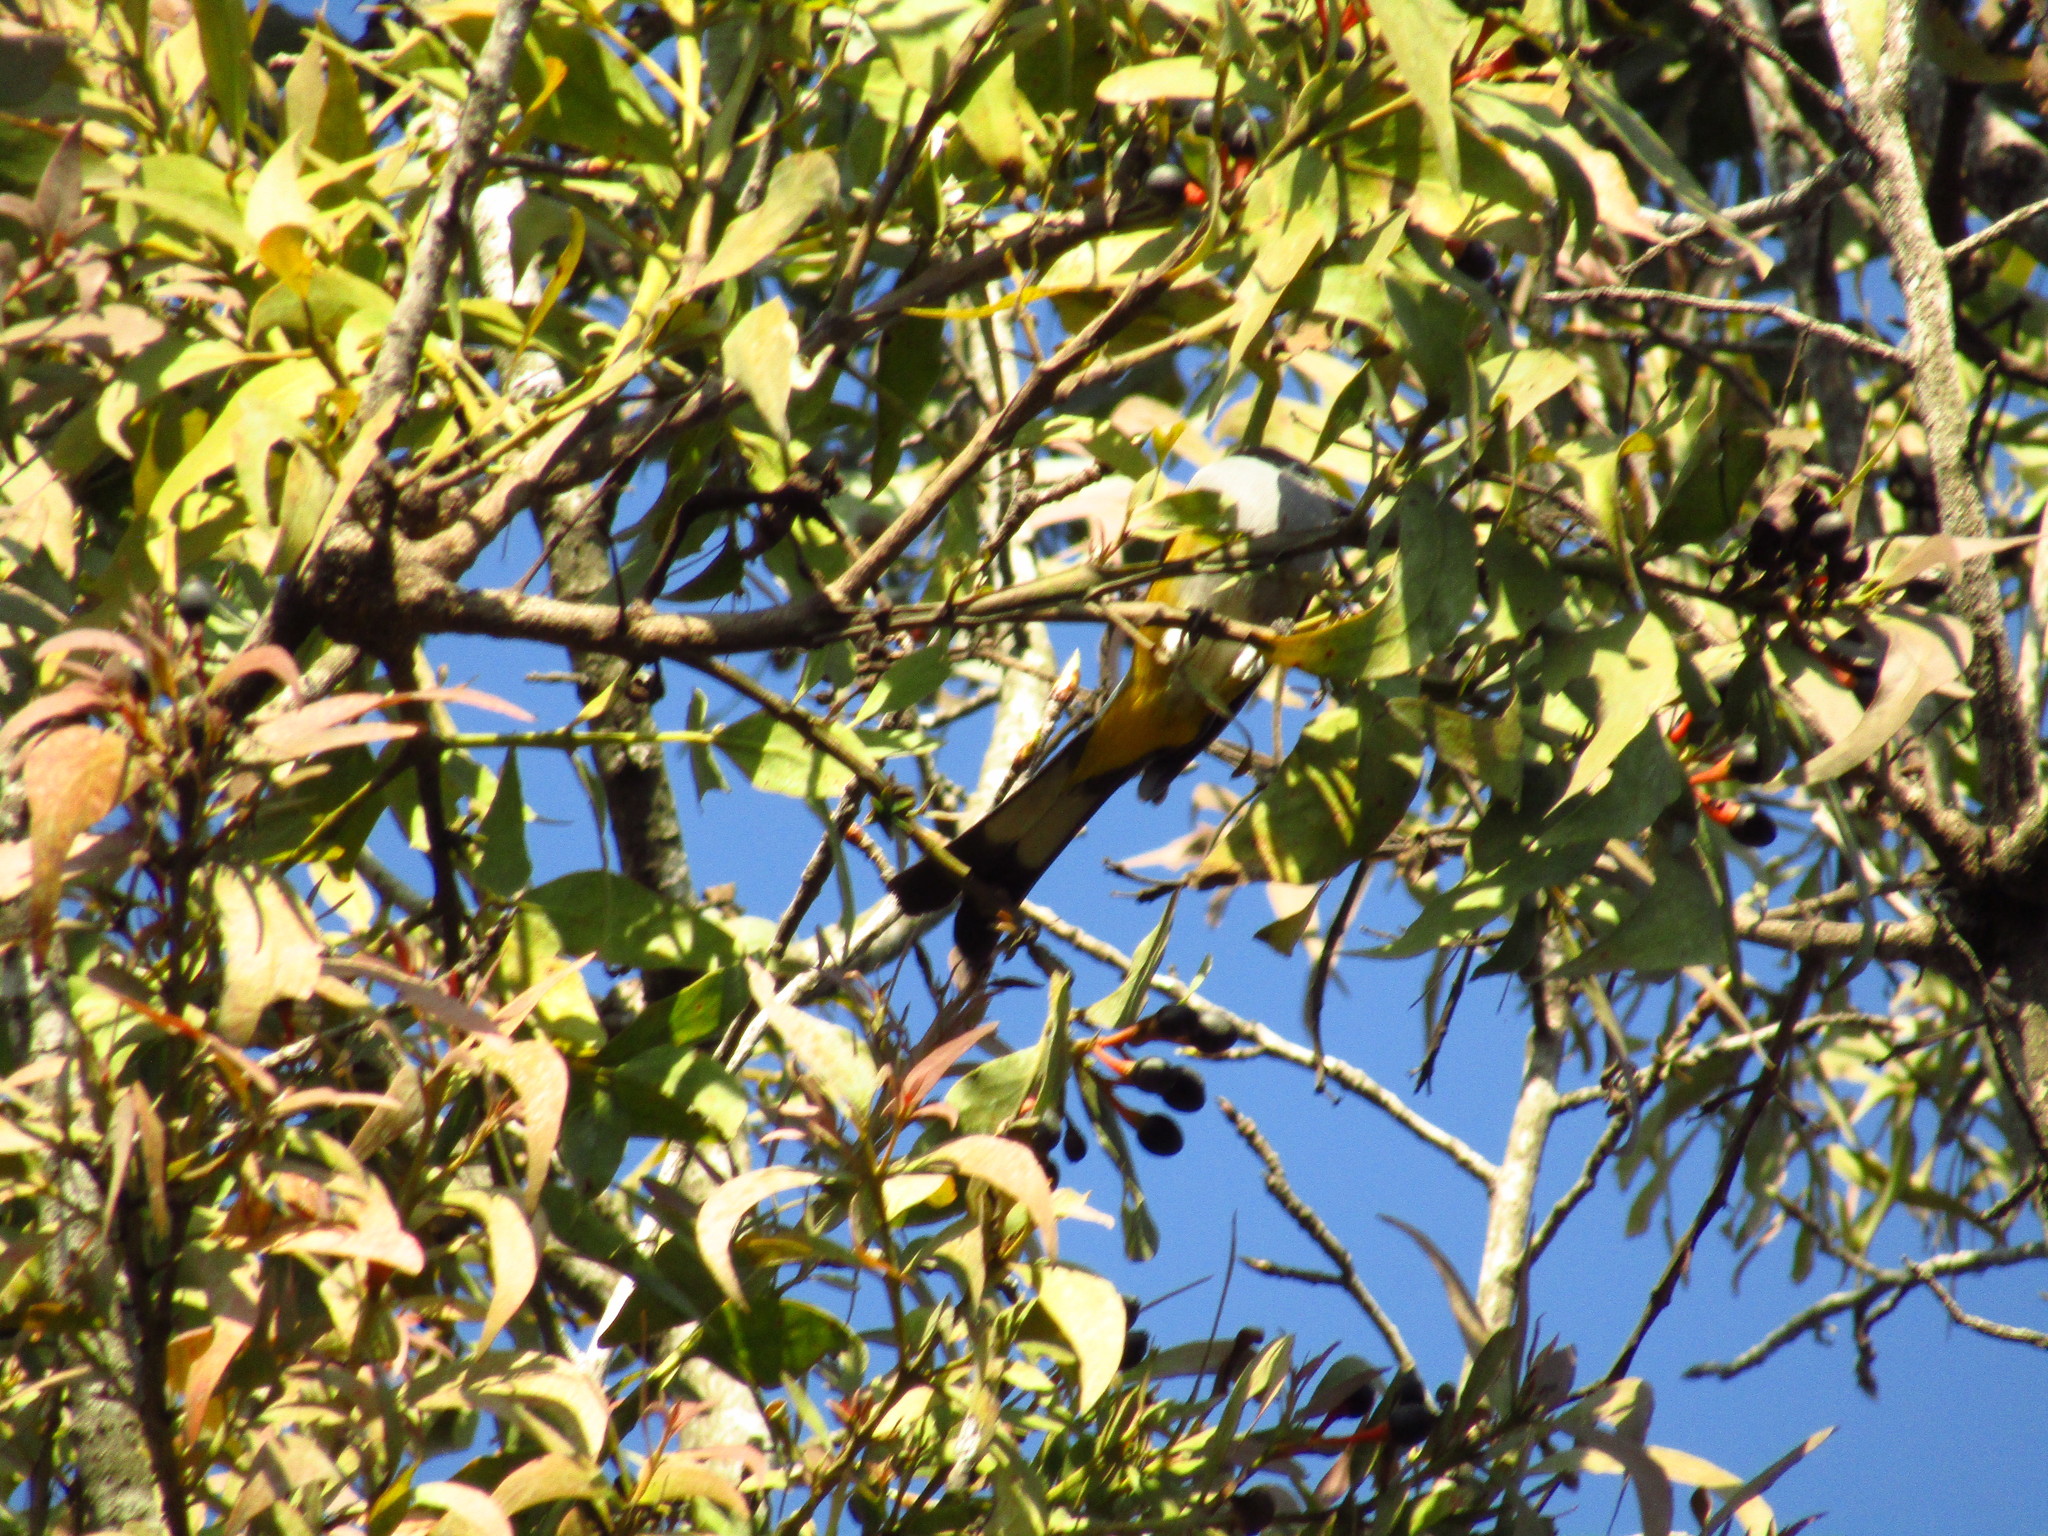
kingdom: Animalia
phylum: Chordata
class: Aves
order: Passeriformes
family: Ptilogonatidae
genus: Ptilogonys
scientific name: Ptilogonys cinereus
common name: Gray silky-flycatcher
